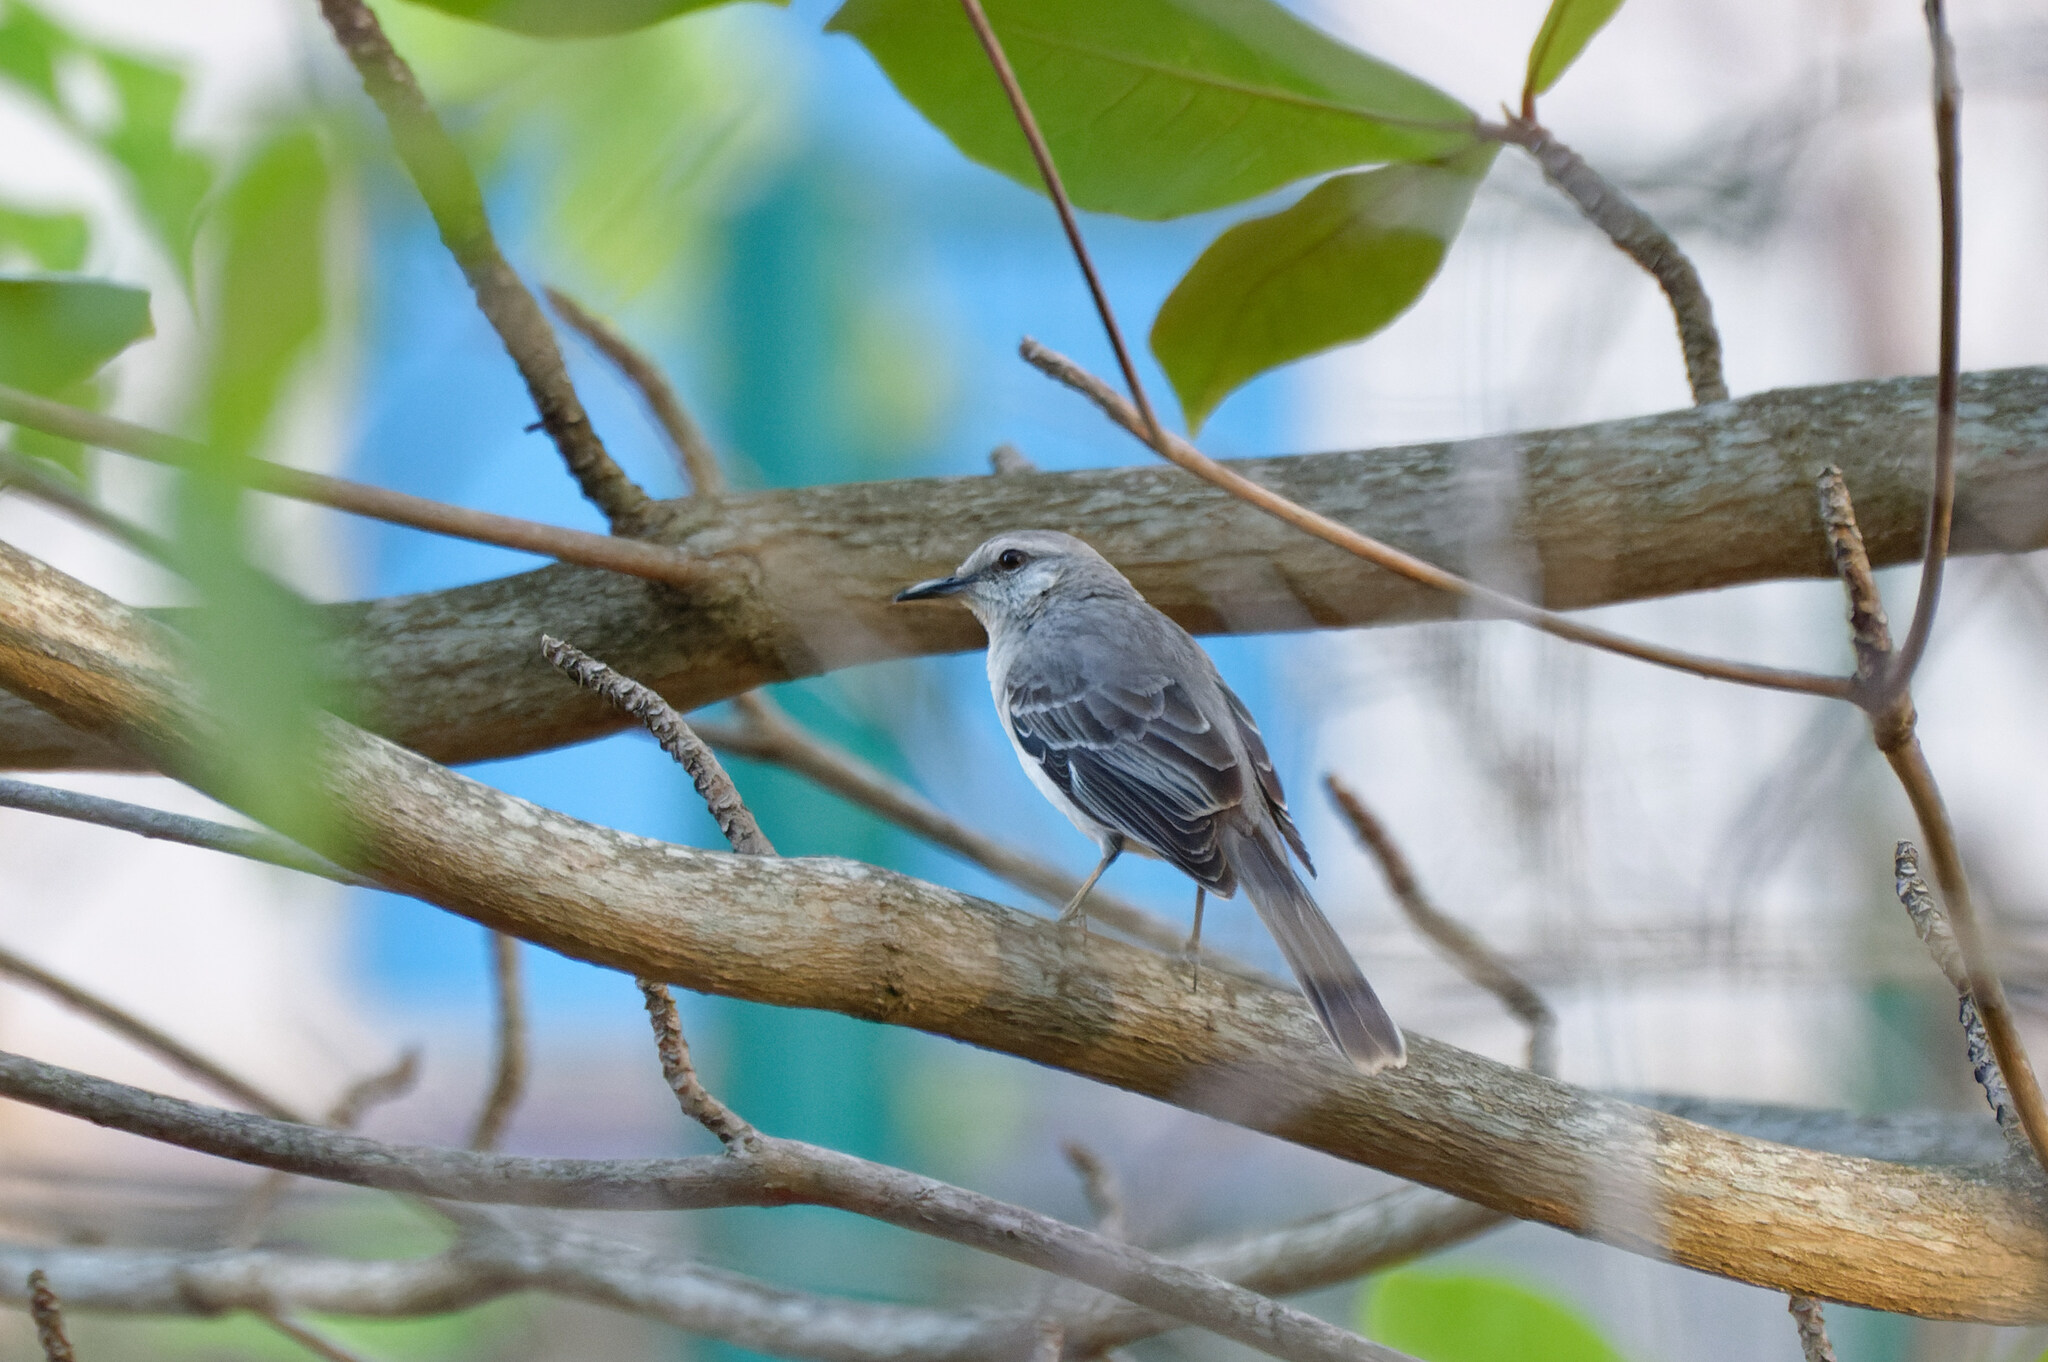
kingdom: Animalia
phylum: Chordata
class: Aves
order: Passeriformes
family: Mimidae
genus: Mimus
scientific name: Mimus gilvus
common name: Tropical mockingbird
